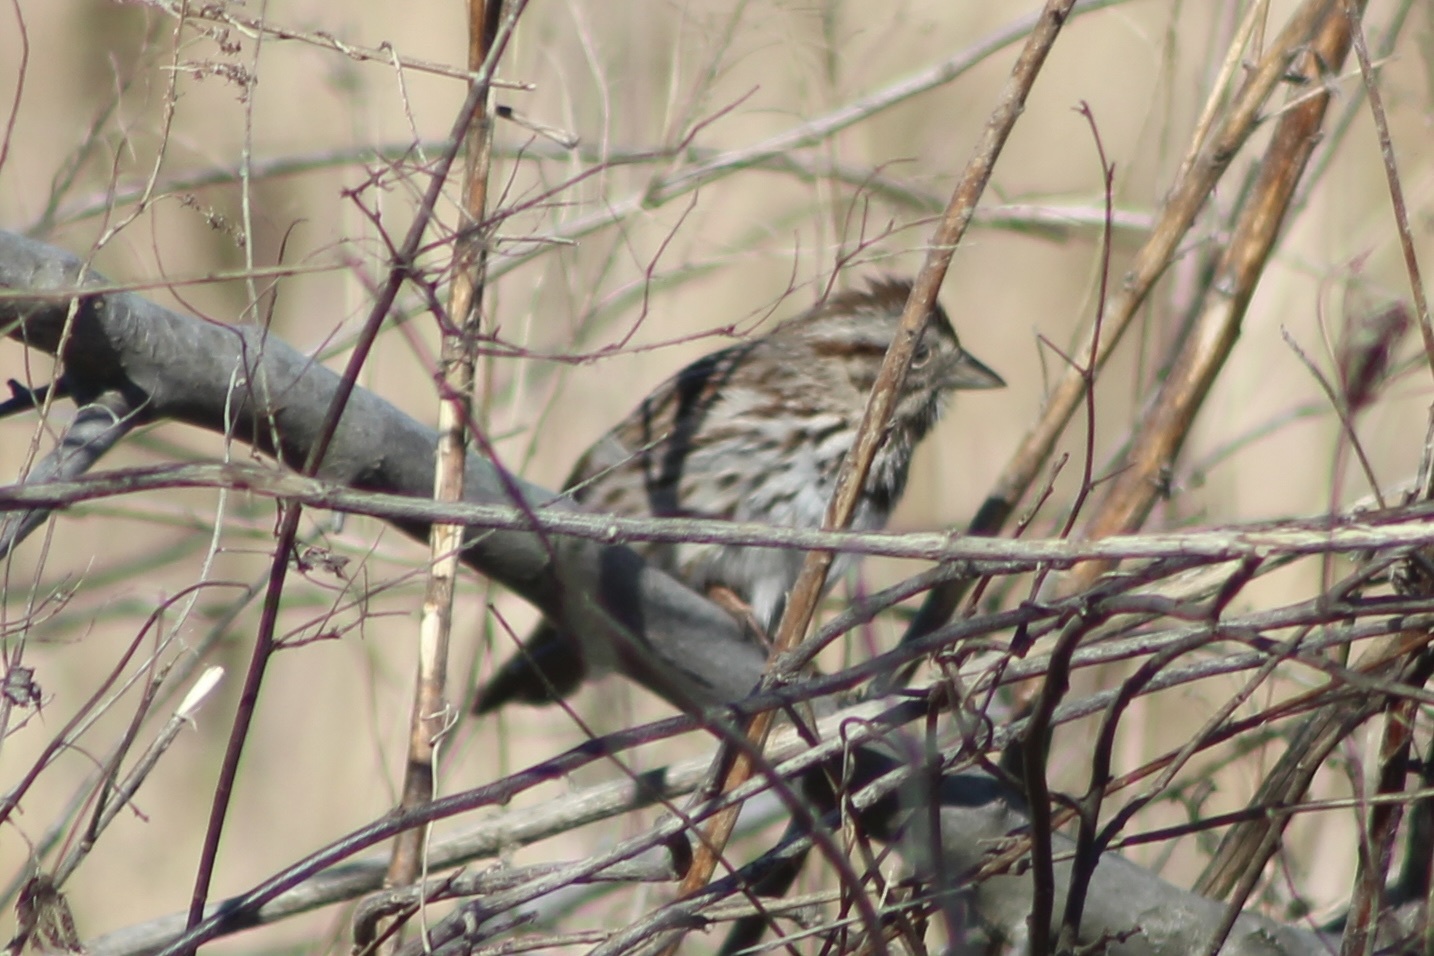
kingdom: Animalia
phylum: Chordata
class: Aves
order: Passeriformes
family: Passerellidae
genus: Melospiza
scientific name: Melospiza melodia
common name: Song sparrow
